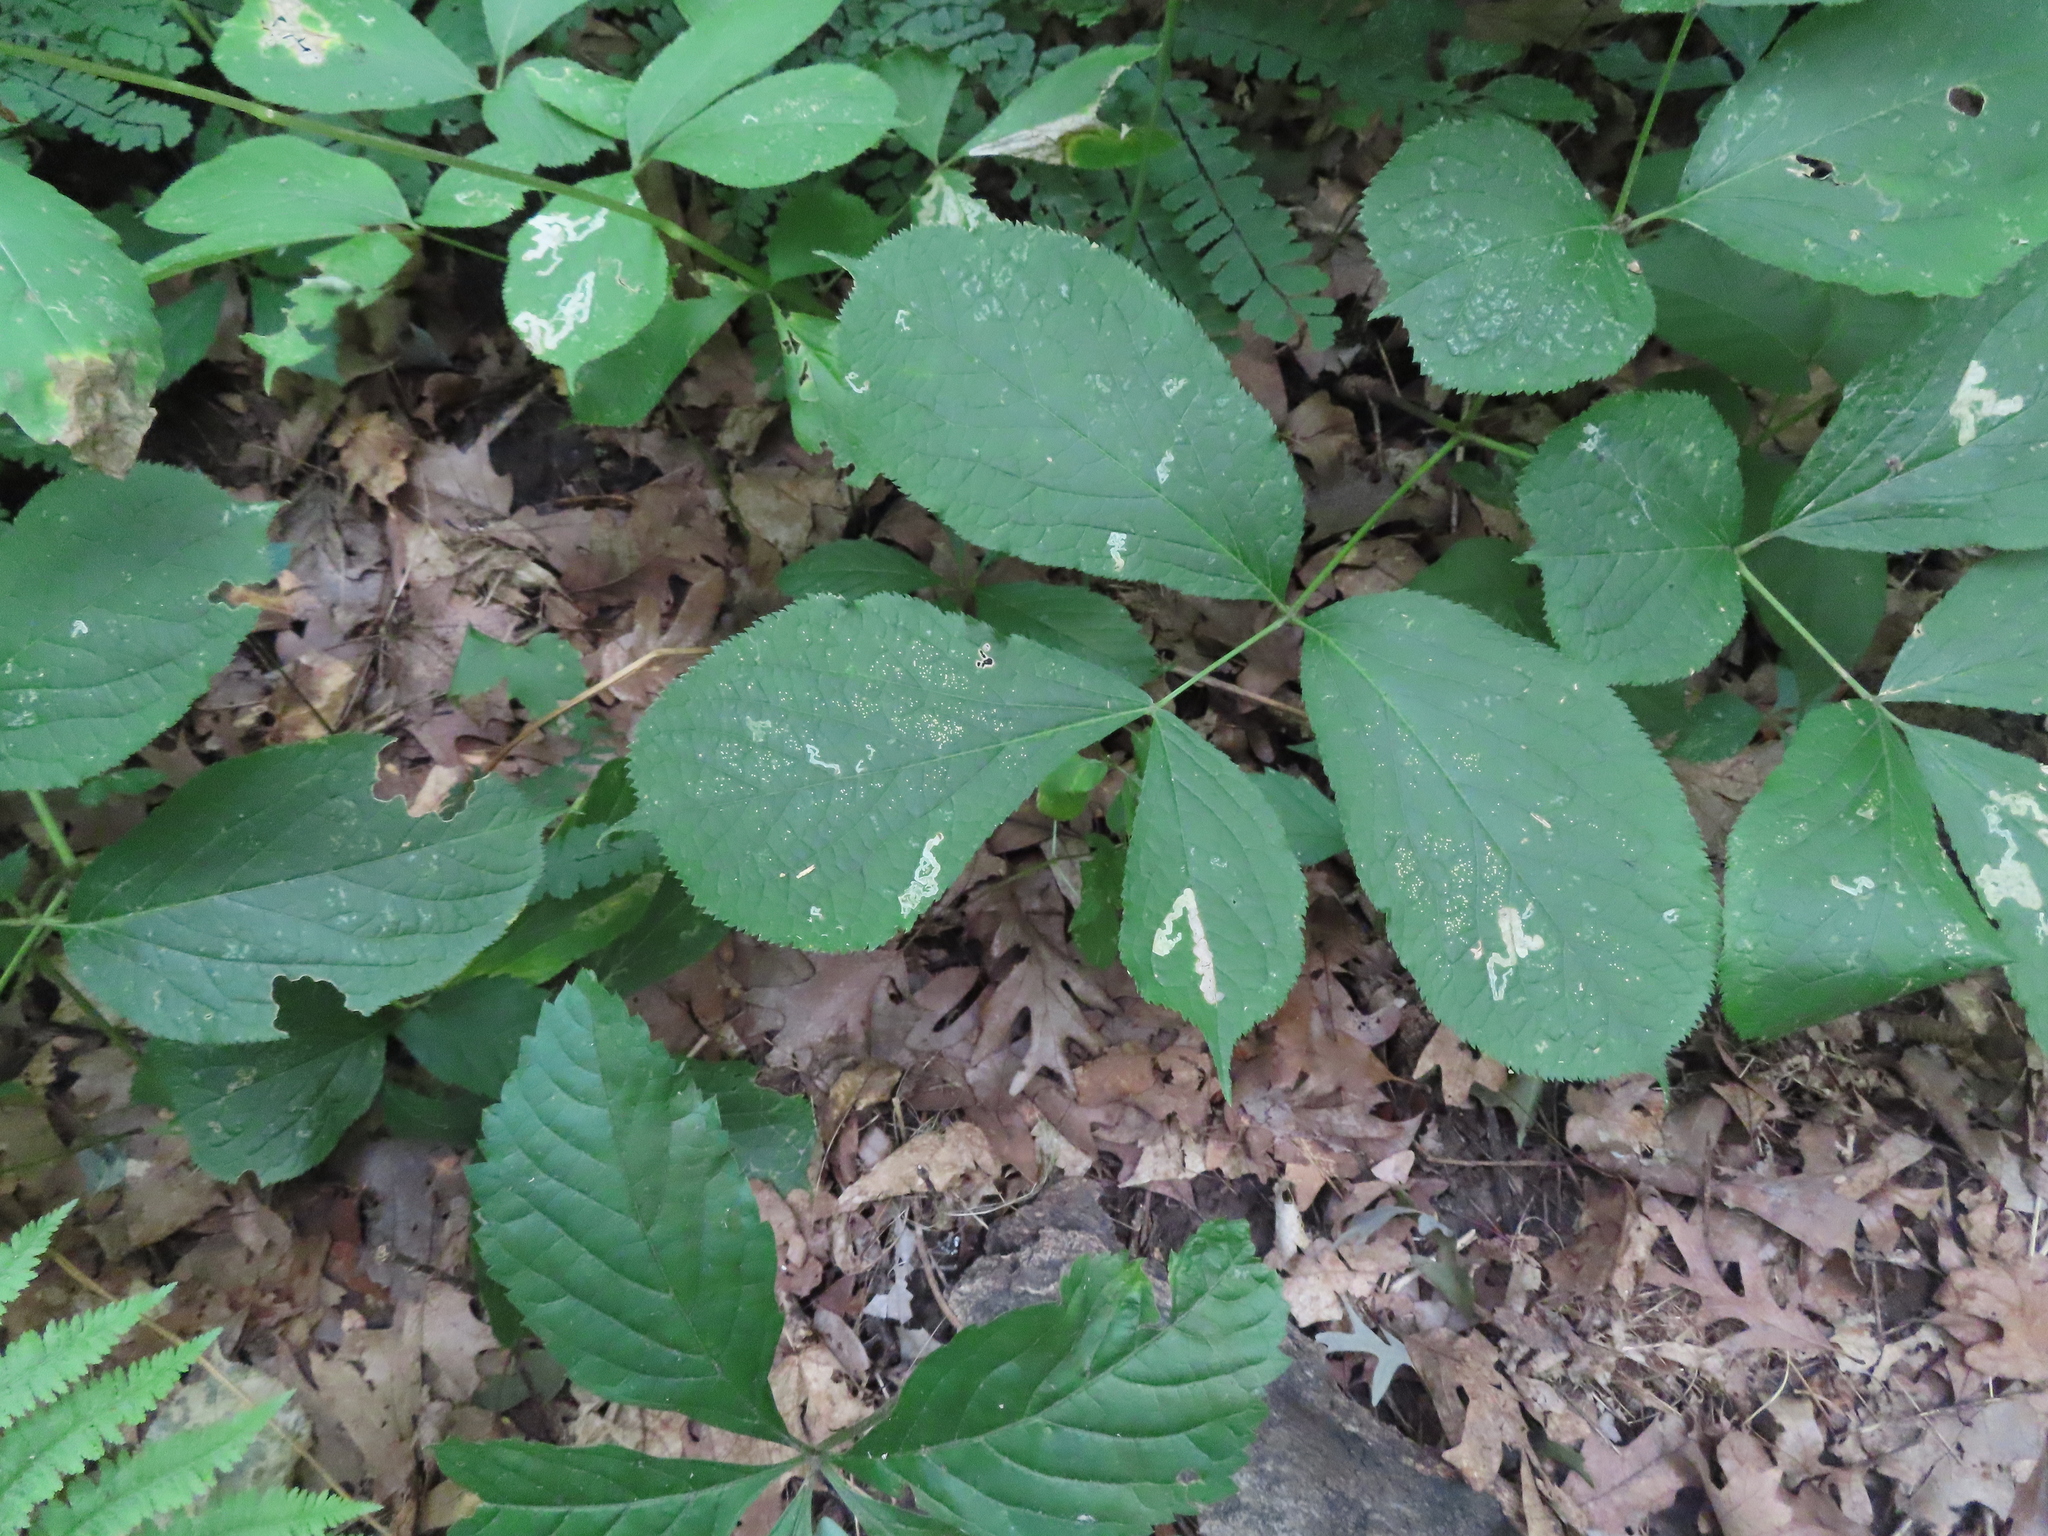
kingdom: Plantae
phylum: Tracheophyta
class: Magnoliopsida
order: Apiales
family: Araliaceae
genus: Aralia
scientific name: Aralia nudicaulis
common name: Wild sarsaparilla
